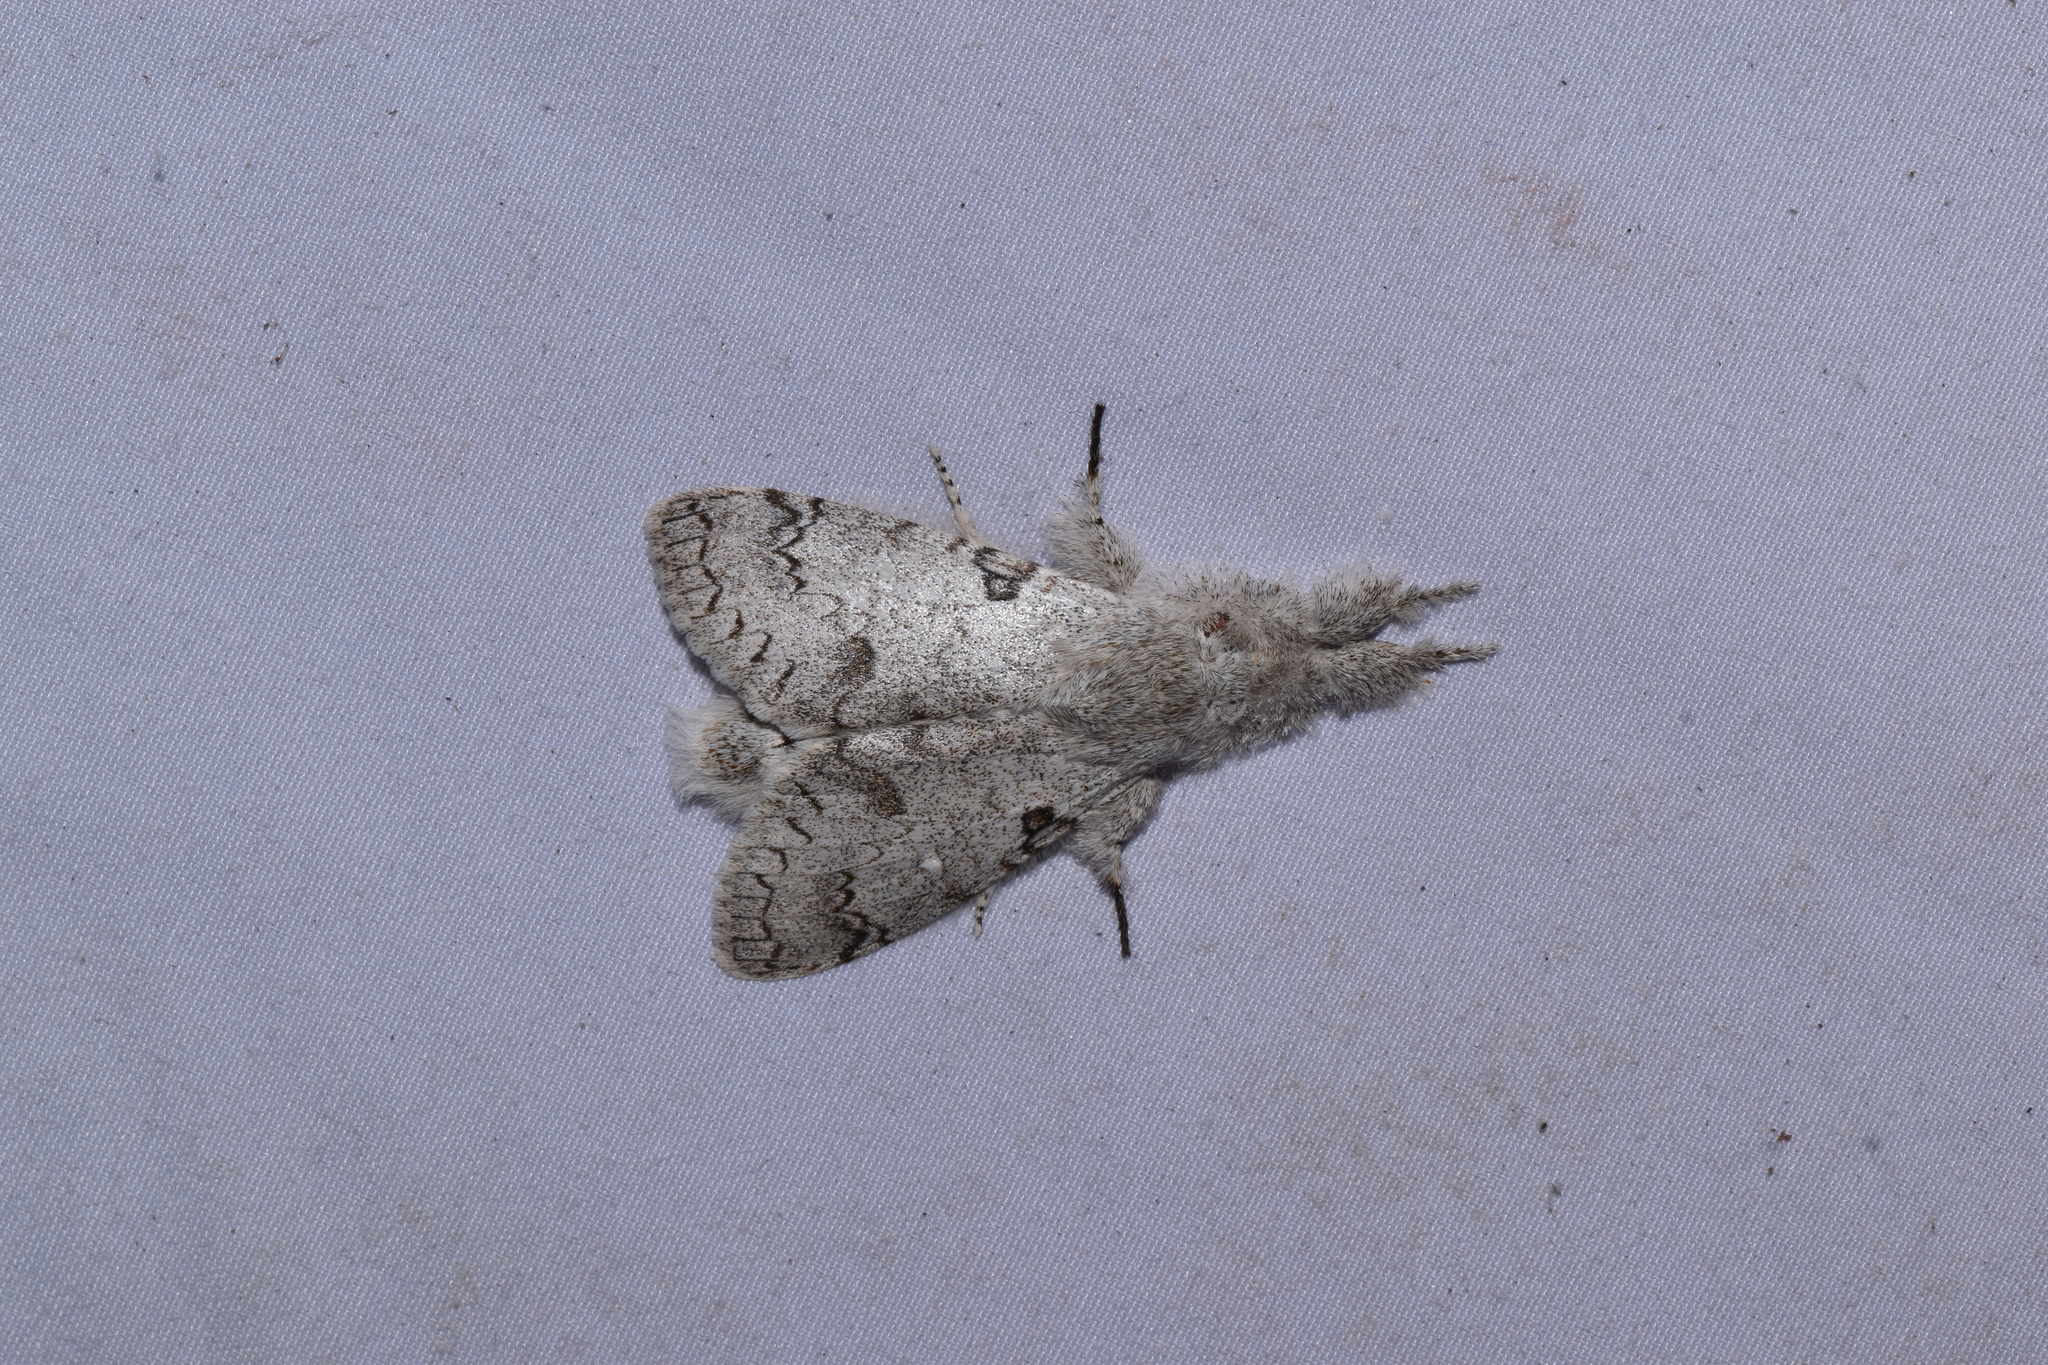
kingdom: Animalia
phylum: Arthropoda
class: Insecta
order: Lepidoptera
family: Erebidae
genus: Calliteara
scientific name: Calliteara
